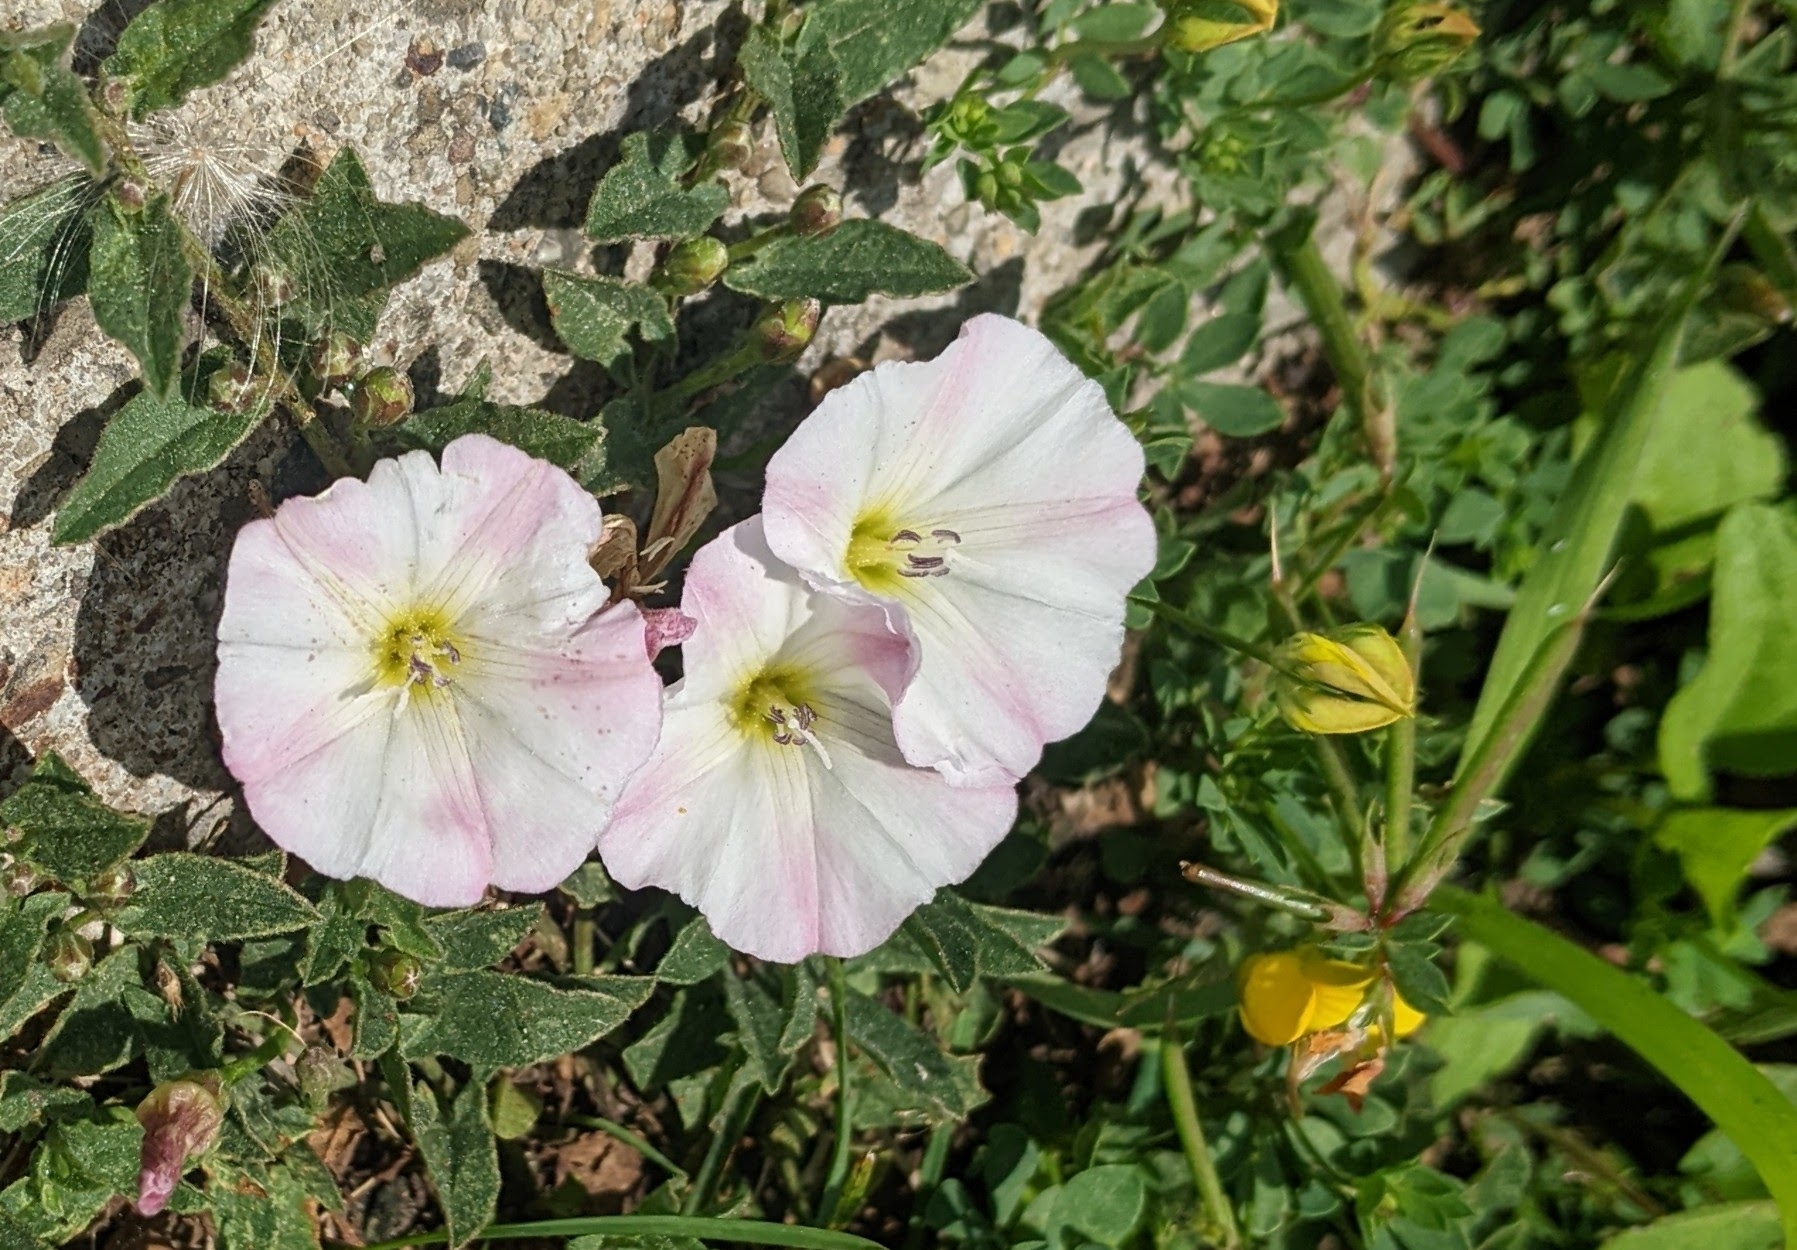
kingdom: Plantae
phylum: Tracheophyta
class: Magnoliopsida
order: Solanales
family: Convolvulaceae
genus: Convolvulus
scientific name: Convolvulus arvensis
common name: Field bindweed
